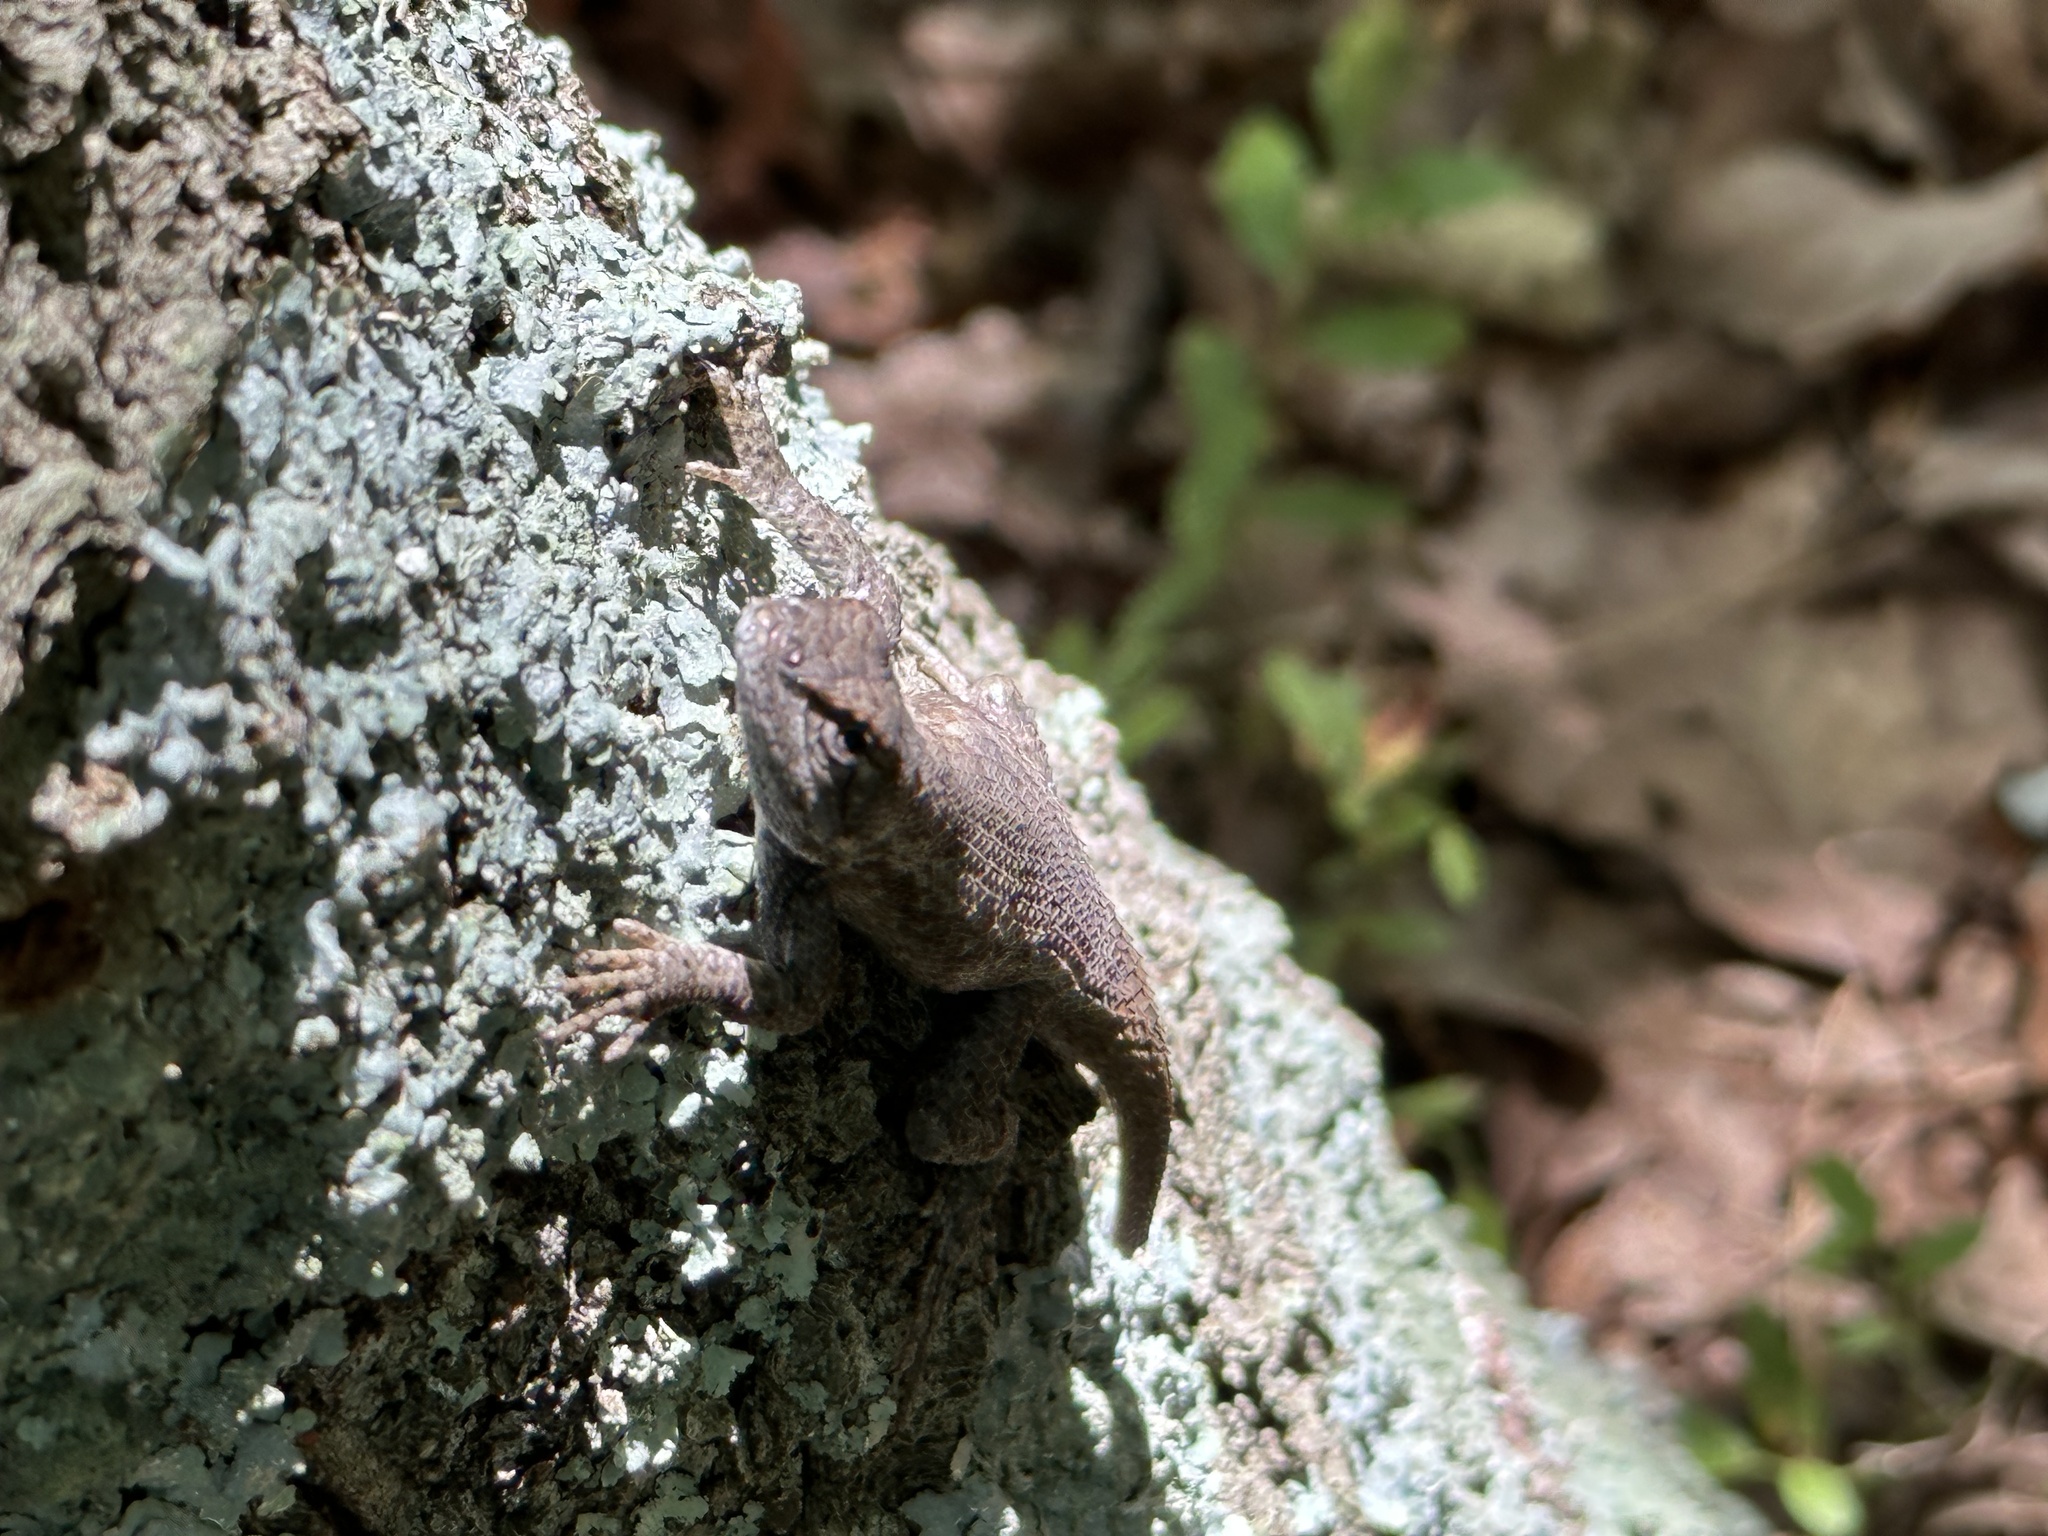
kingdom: Animalia
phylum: Chordata
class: Squamata
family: Phrynosomatidae
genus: Sceloporus
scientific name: Sceloporus undulatus
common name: Eastern fence lizard
